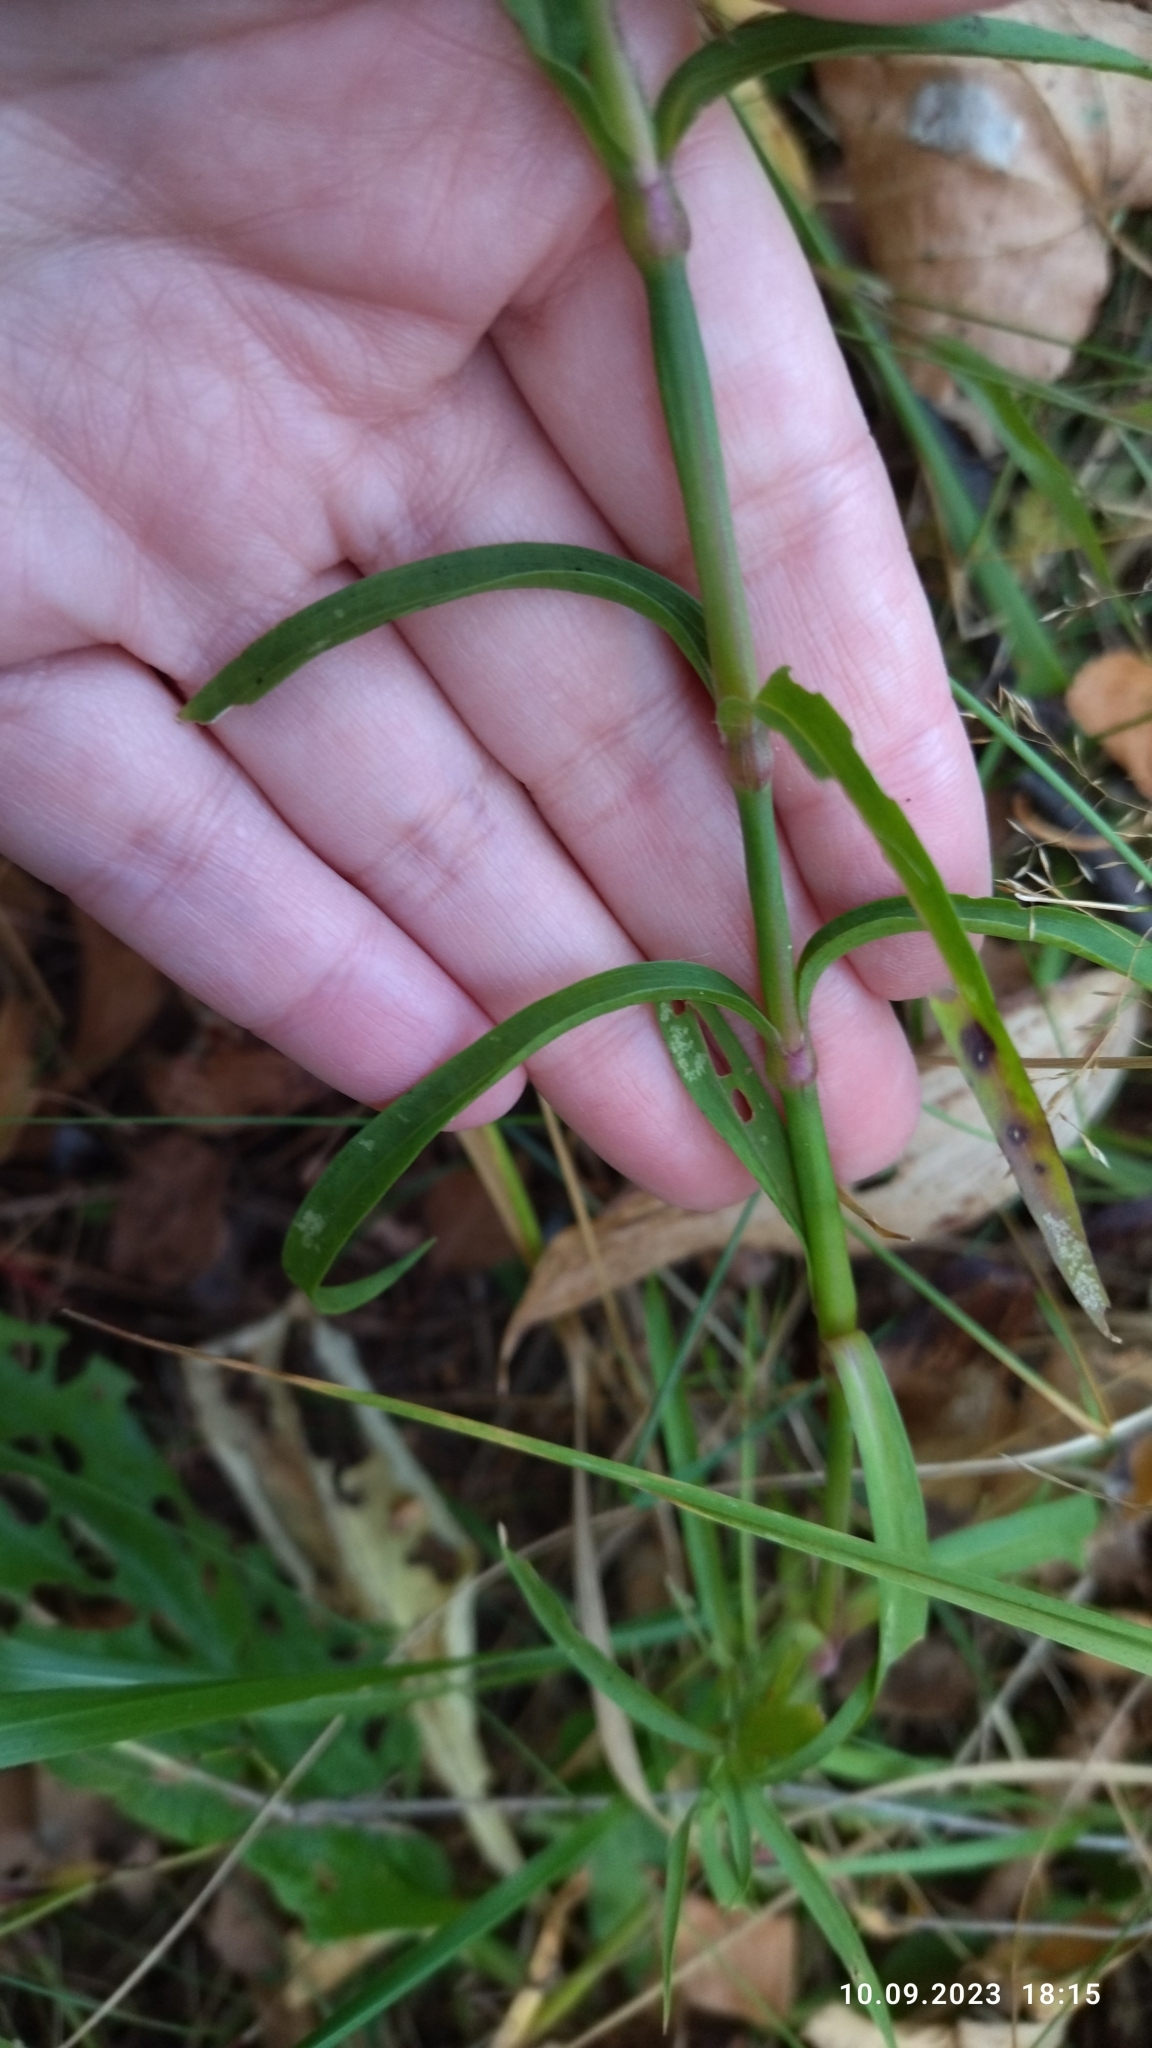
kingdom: Plantae
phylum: Tracheophyta
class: Magnoliopsida
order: Caryophyllales
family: Caryophyllaceae
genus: Dianthus
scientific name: Dianthus chinensis
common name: Rainbow pink
